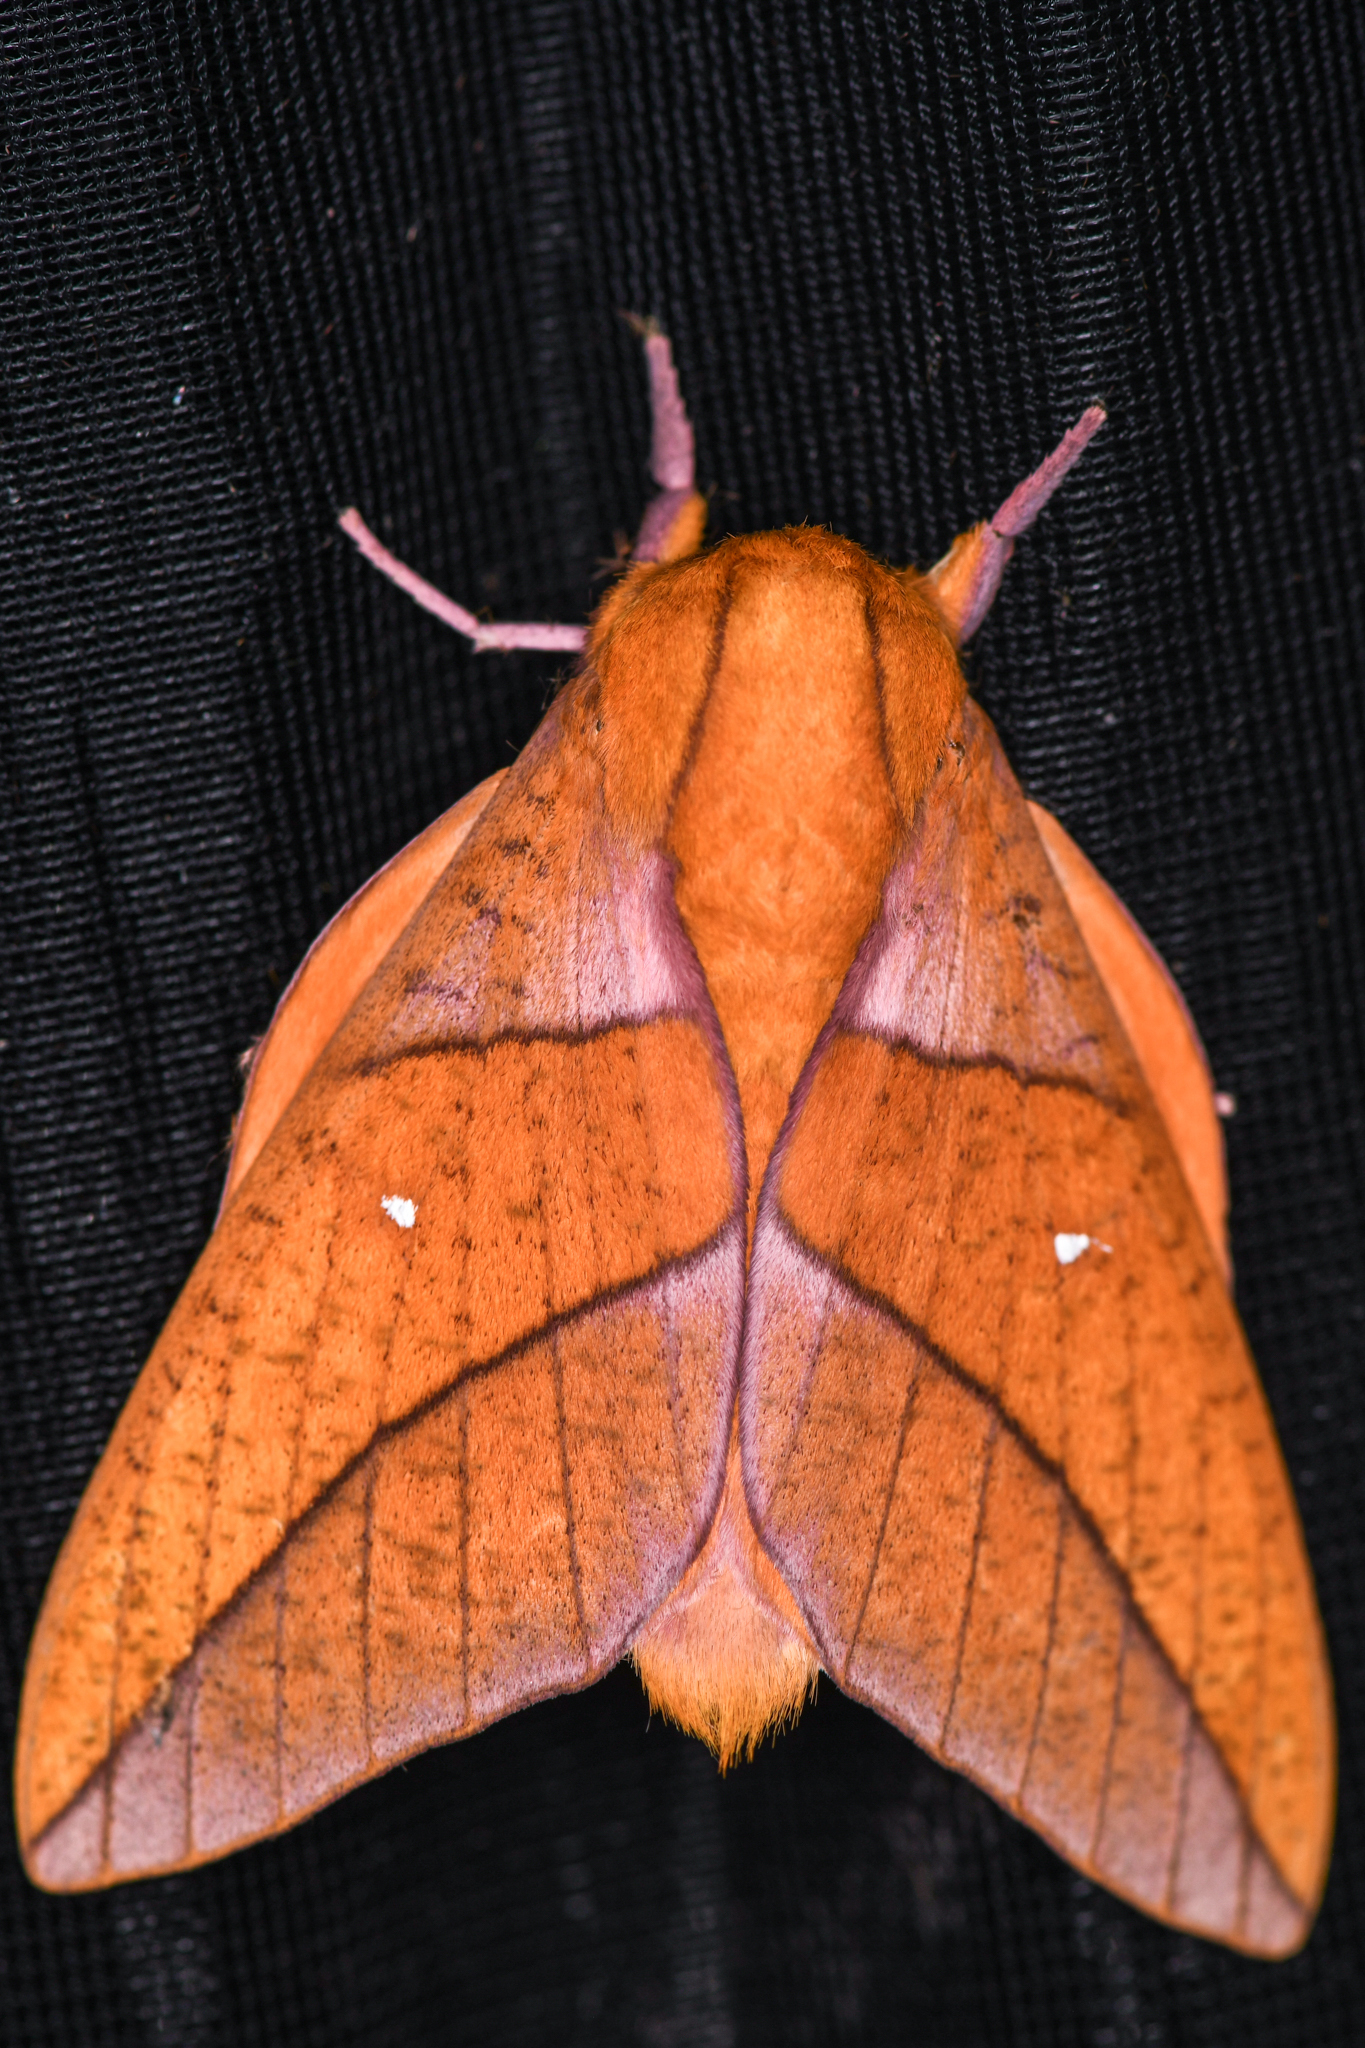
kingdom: Animalia
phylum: Arthropoda
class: Insecta
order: Lepidoptera
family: Saturniidae
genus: Adeloneivaia
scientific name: Adeloneivaia jason
